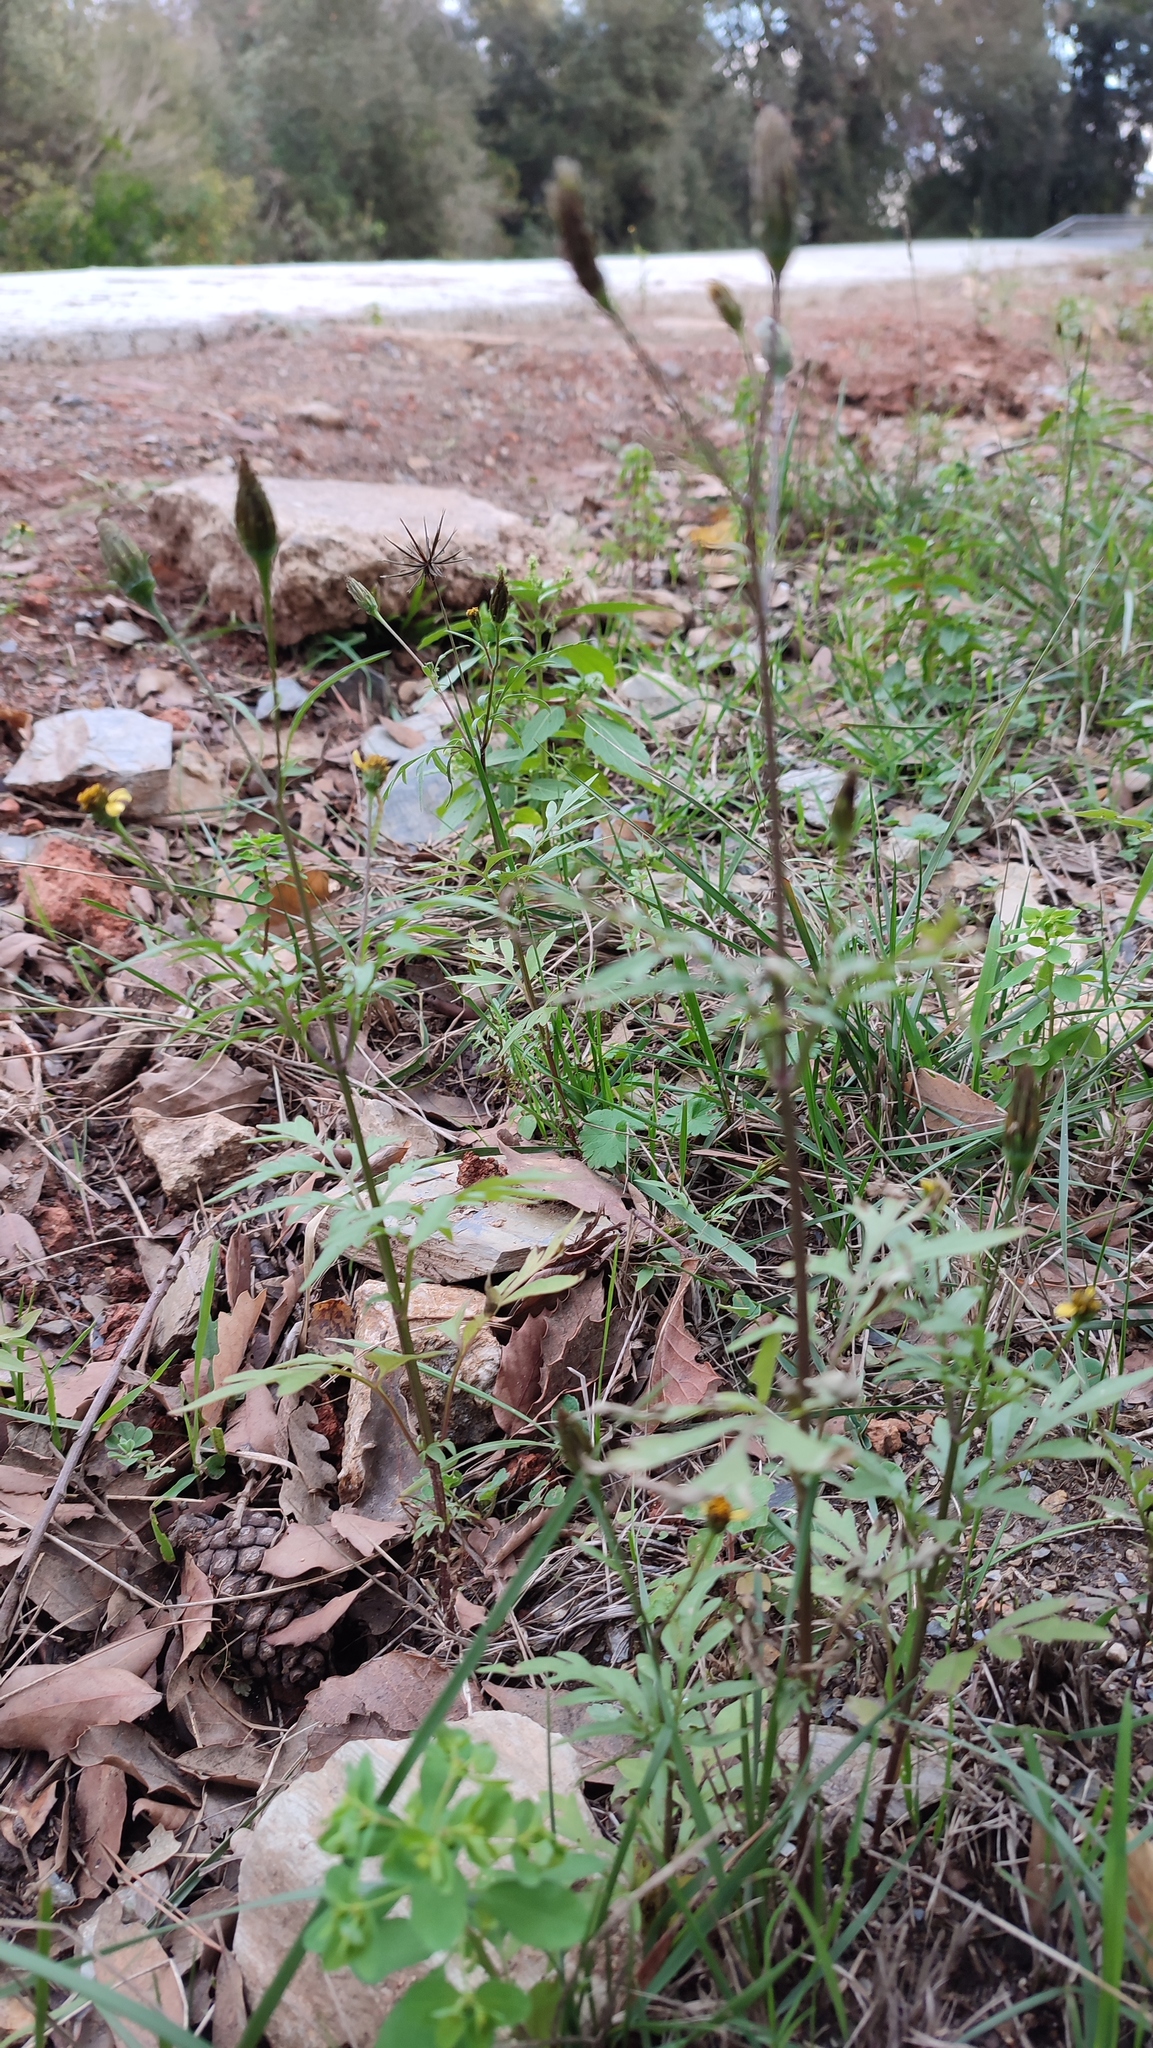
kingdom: Plantae
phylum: Tracheophyta
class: Magnoliopsida
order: Asterales
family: Asteraceae
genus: Bidens
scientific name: Bidens subalternans
